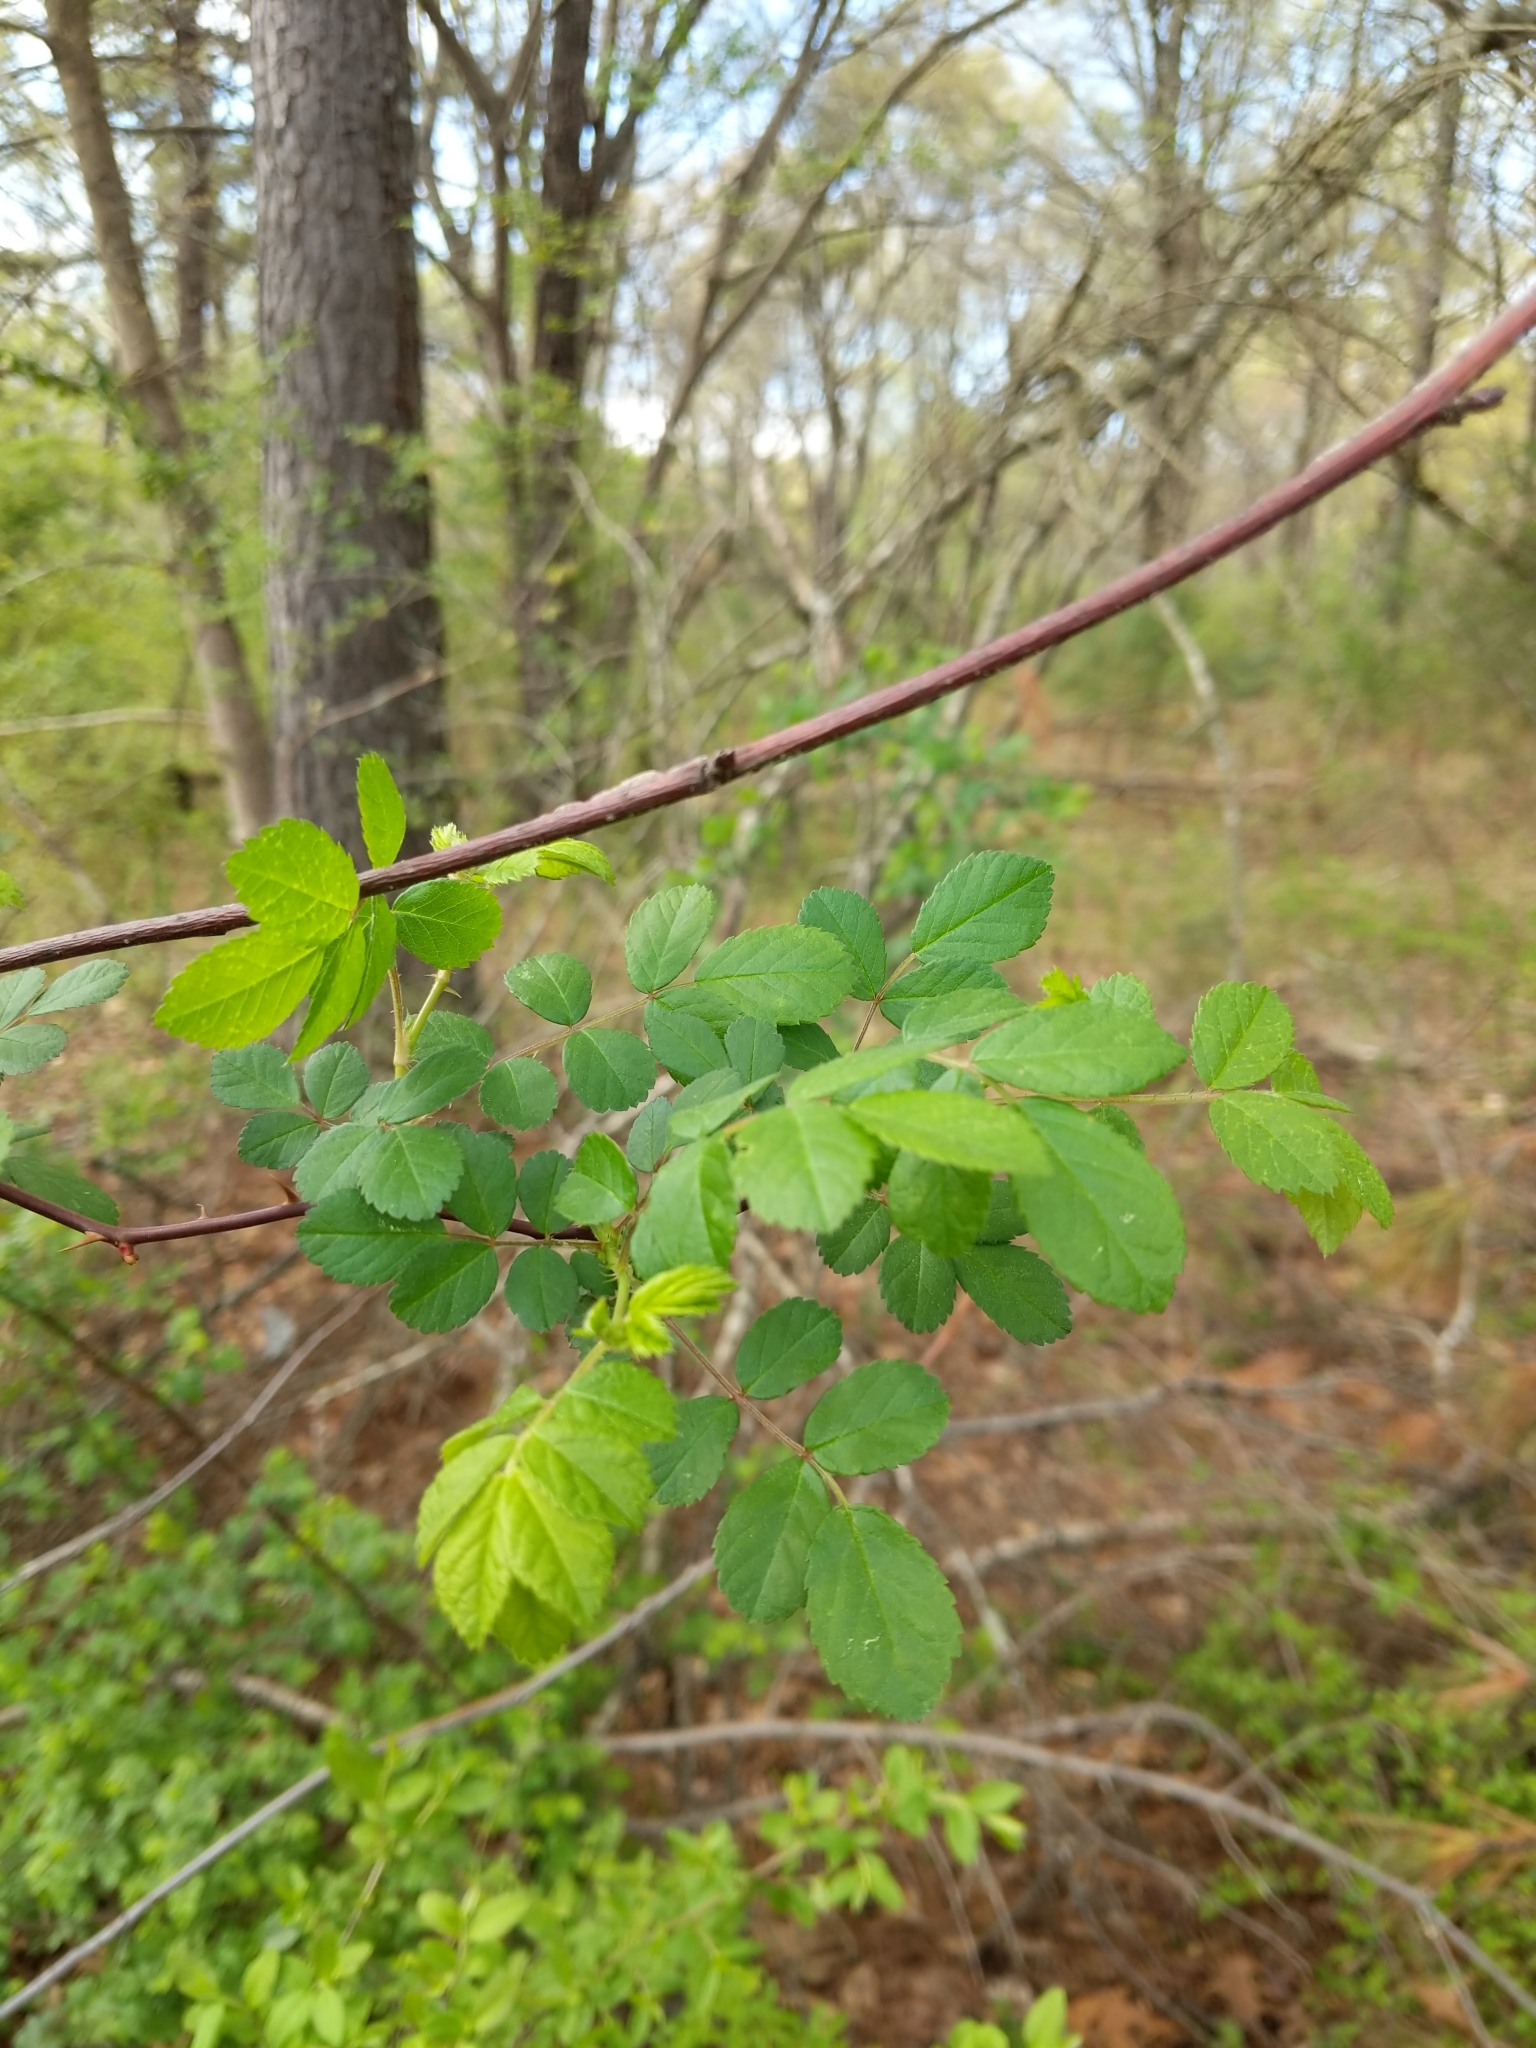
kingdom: Plantae
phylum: Tracheophyta
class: Magnoliopsida
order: Rosales
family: Rosaceae
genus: Rosa
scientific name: Rosa multiflora
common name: Multiflora rose
